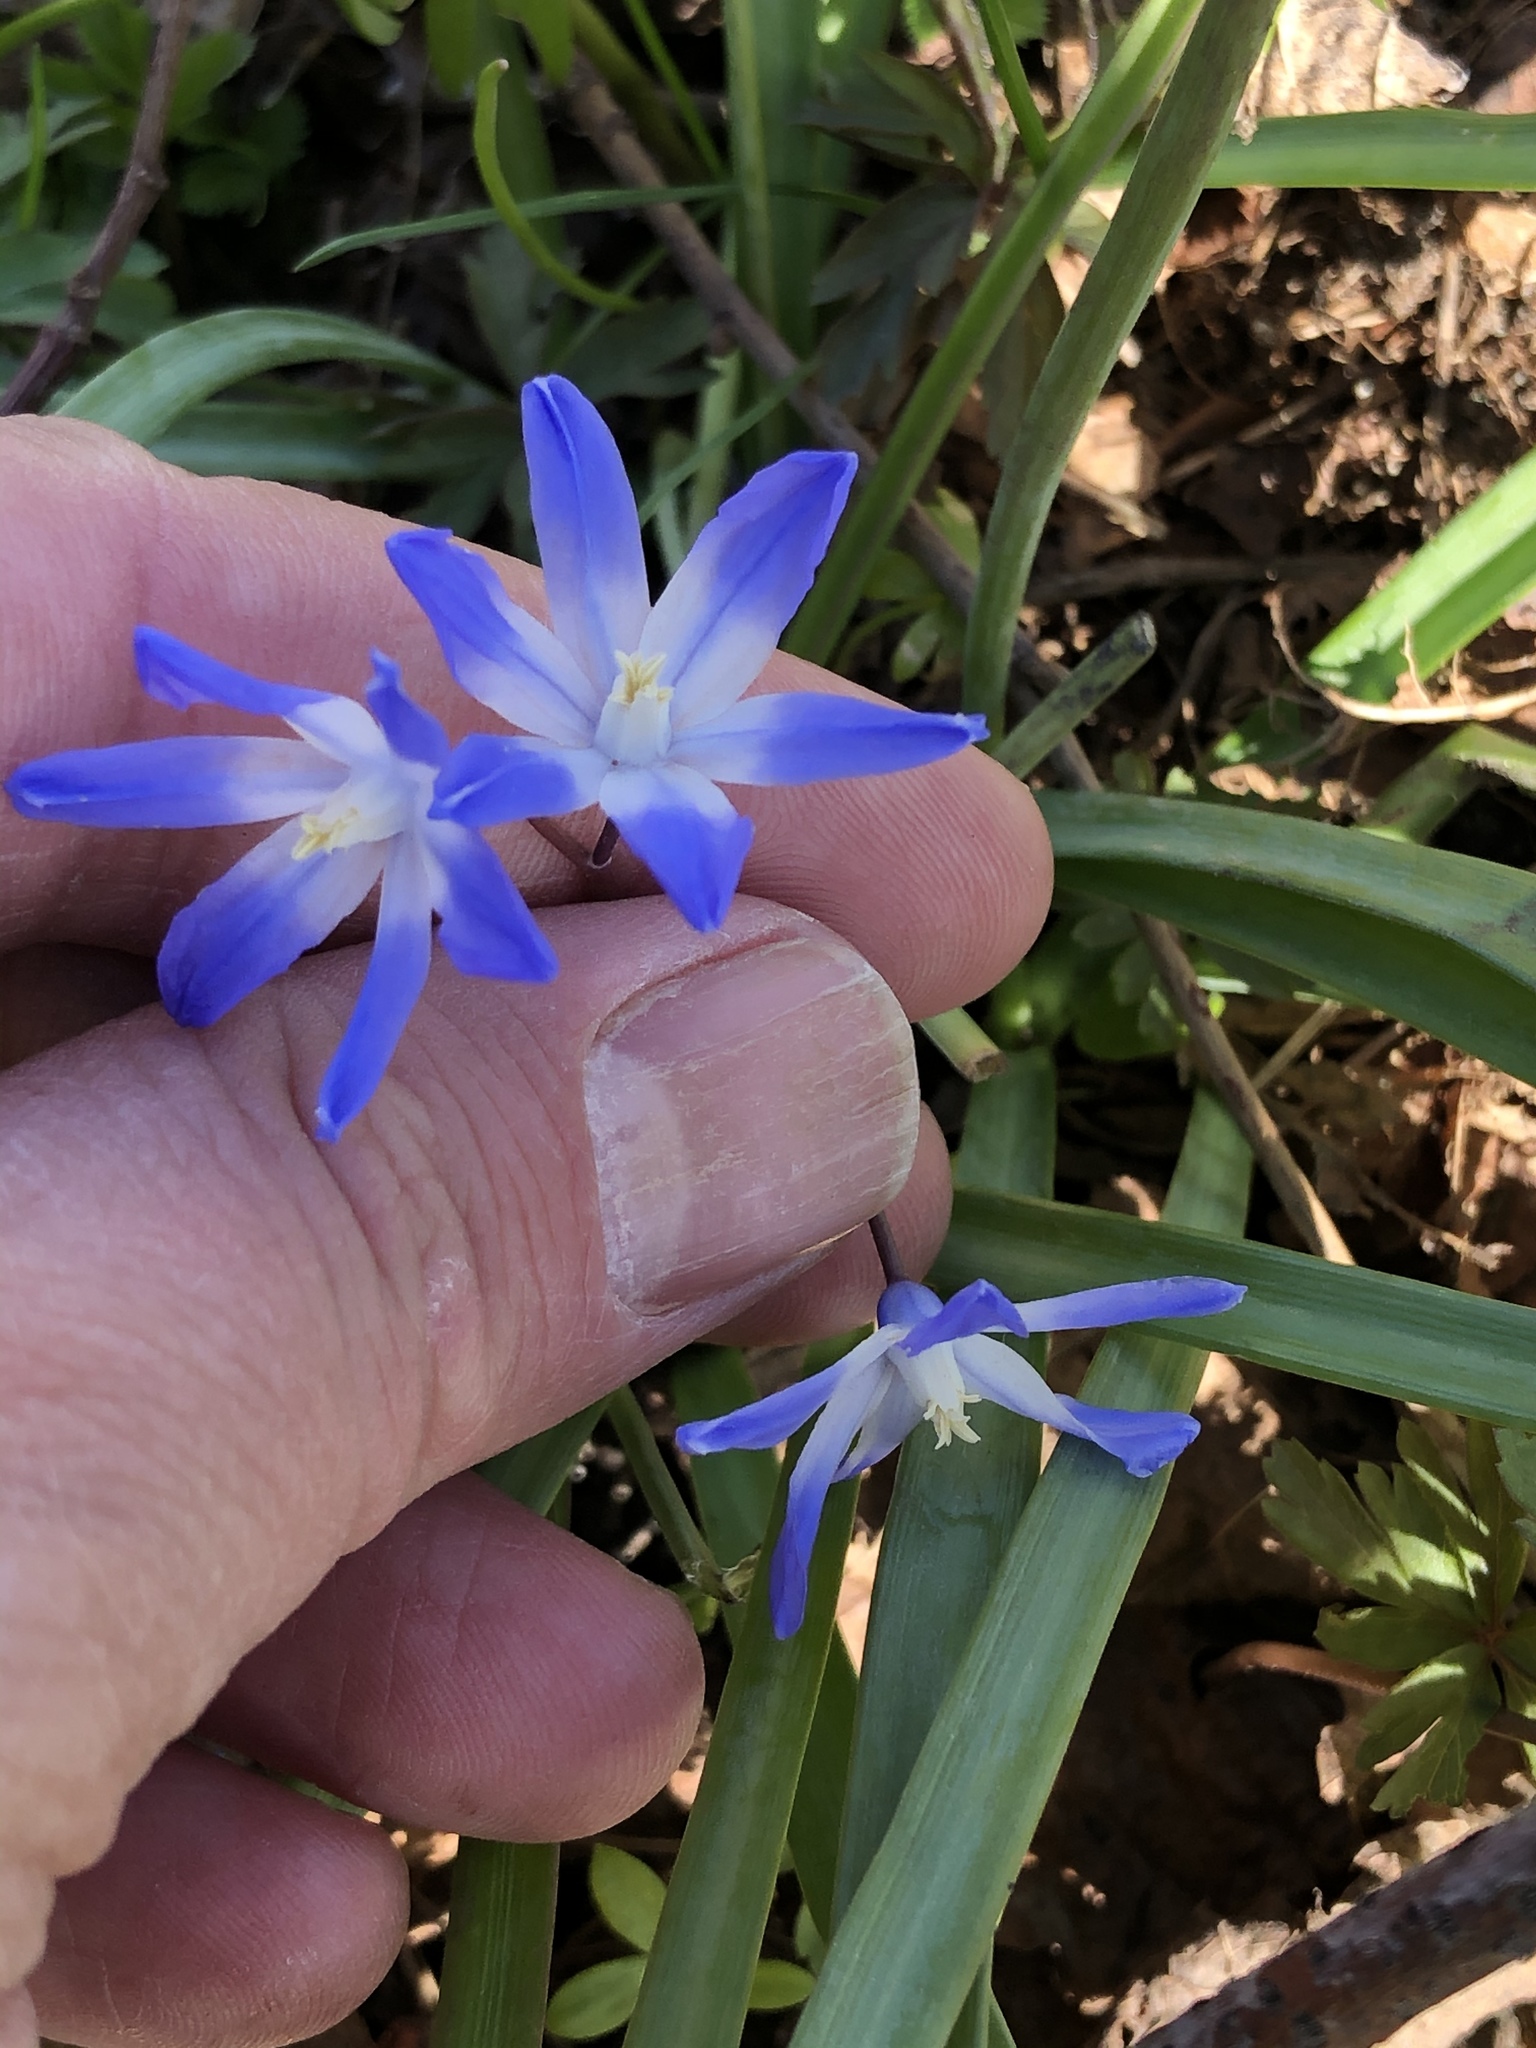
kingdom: Plantae
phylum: Tracheophyta
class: Liliopsida
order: Asparagales
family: Asparagaceae
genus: Scilla
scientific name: Scilla luciliae
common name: Boissier's glory-of-the-snow
